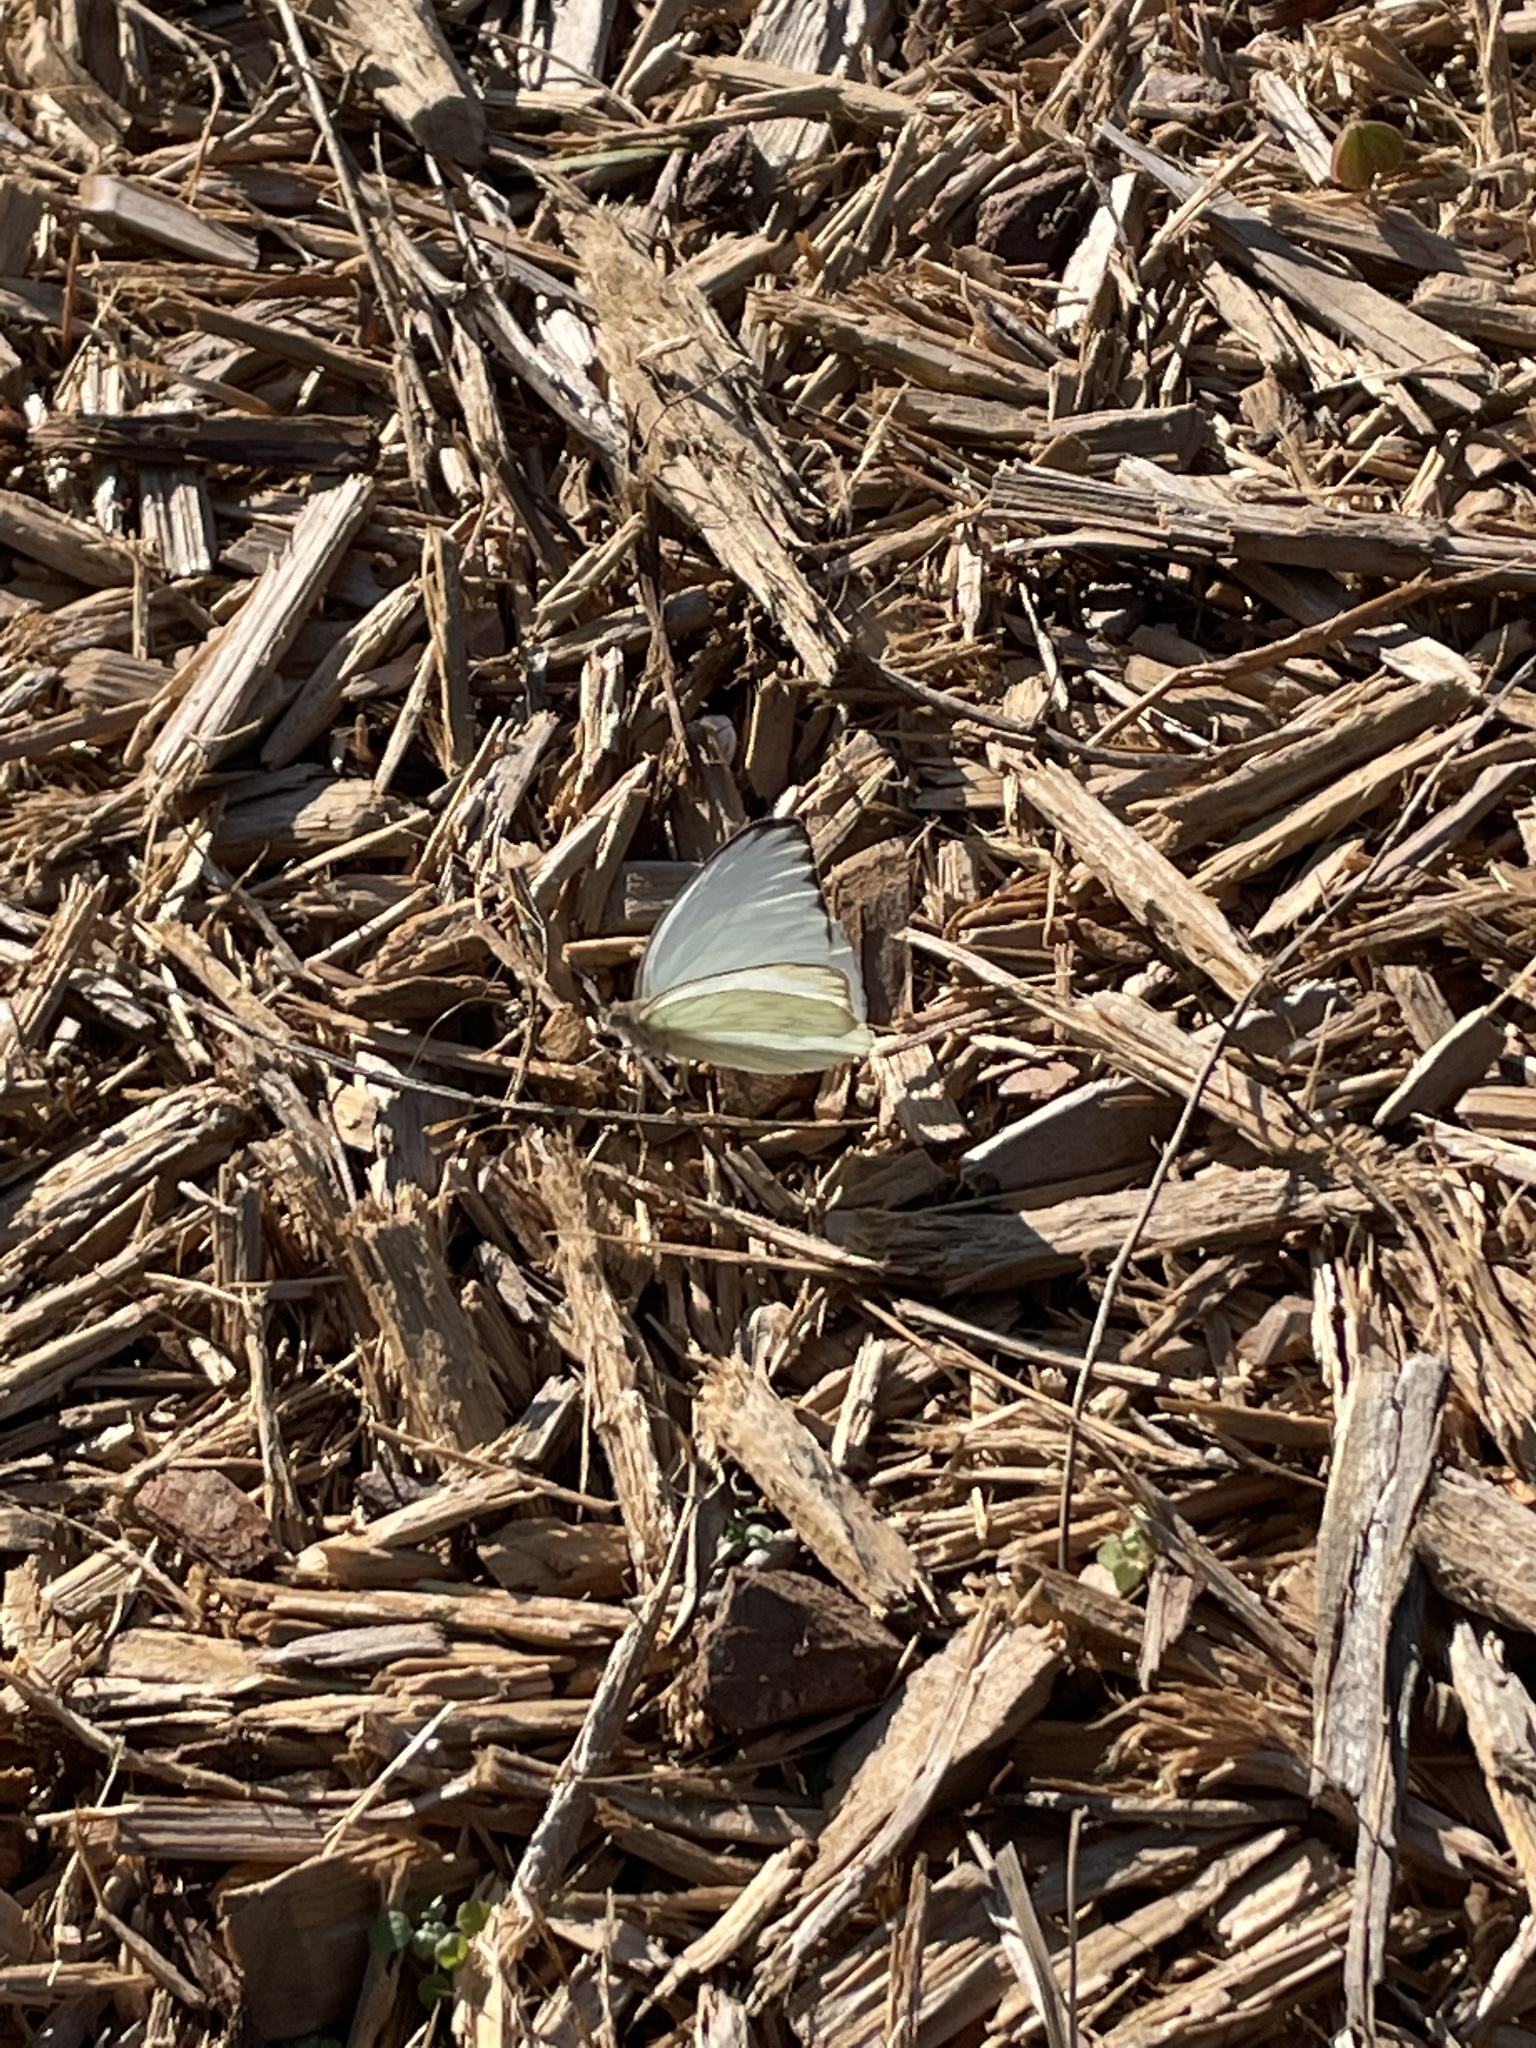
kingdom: Animalia
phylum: Arthropoda
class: Insecta
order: Lepidoptera
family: Pieridae
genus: Ascia
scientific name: Ascia monuste
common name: Great southern white
